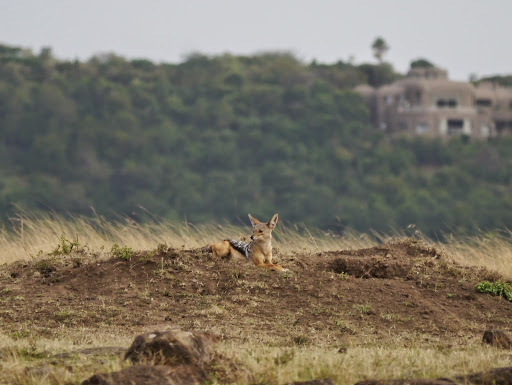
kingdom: Animalia
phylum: Chordata
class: Mammalia
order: Carnivora
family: Canidae
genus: Lupulella
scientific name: Lupulella
